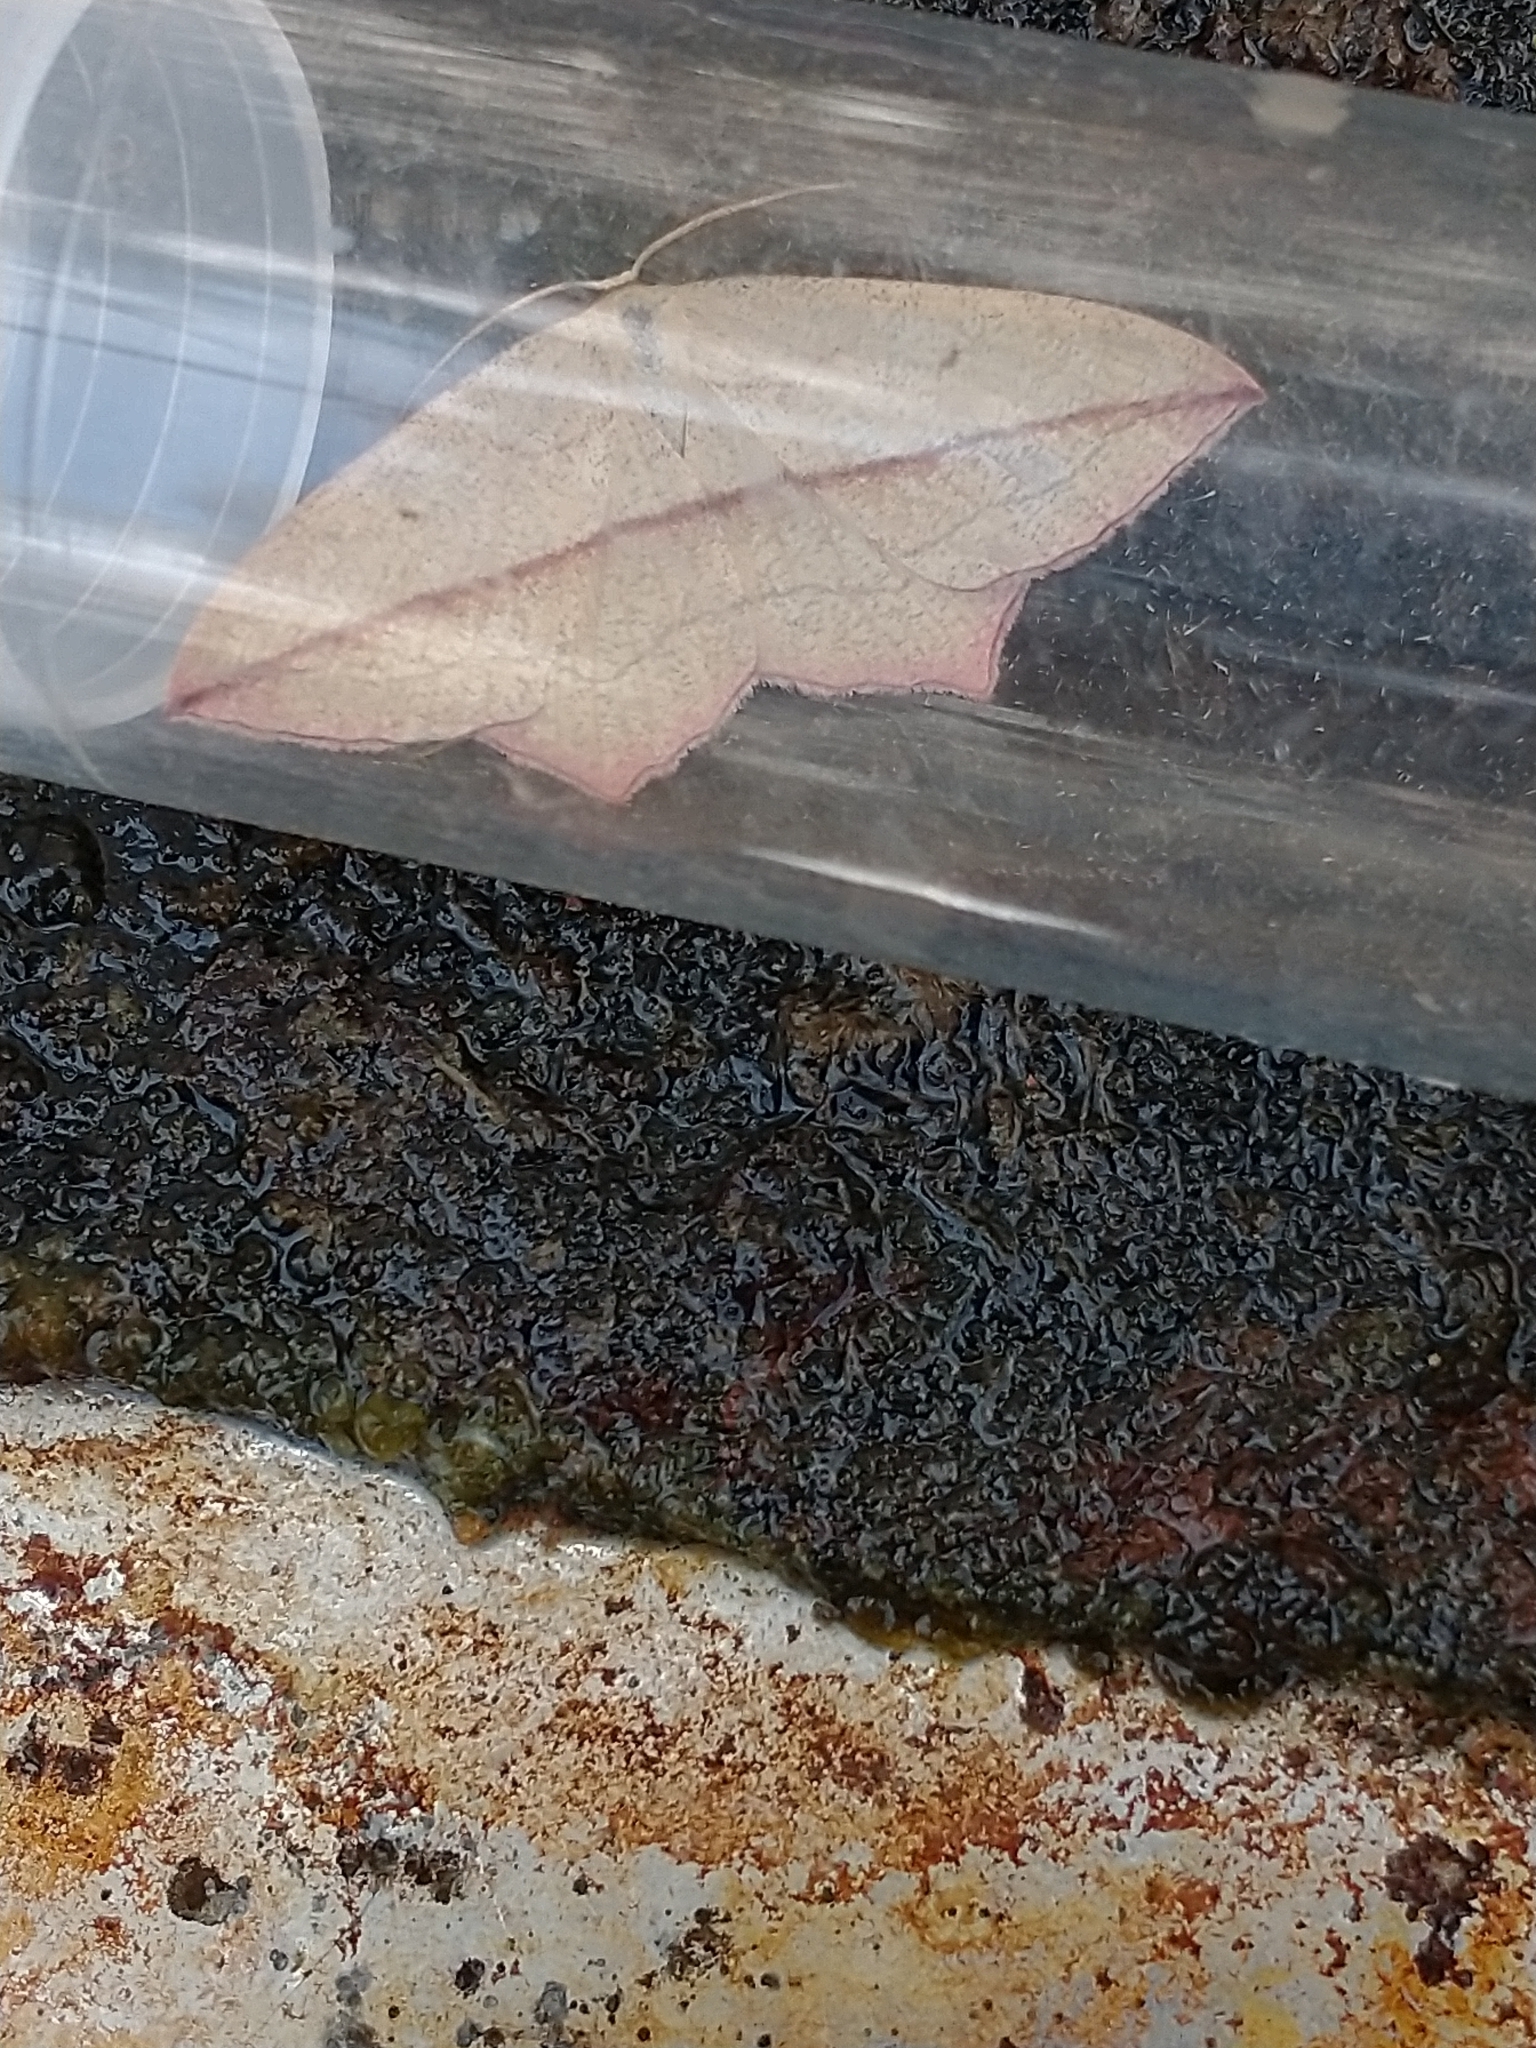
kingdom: Animalia
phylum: Arthropoda
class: Insecta
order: Lepidoptera
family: Geometridae
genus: Timandra
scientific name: Timandra comae
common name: Blood-vein
